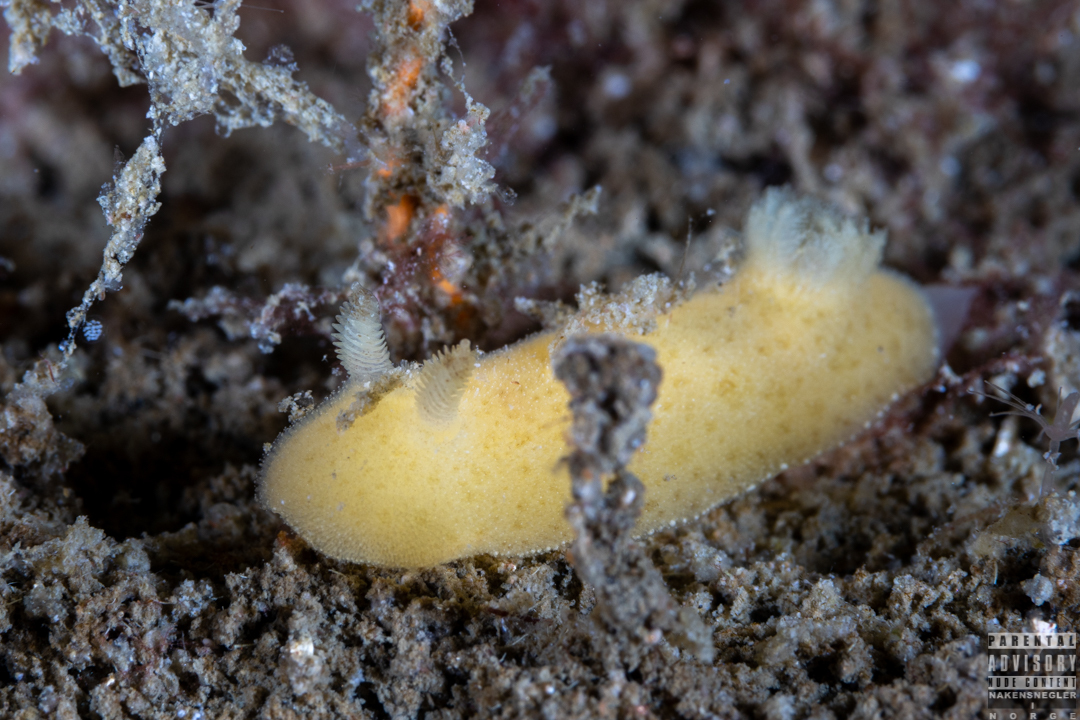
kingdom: Animalia
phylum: Mollusca
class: Gastropoda
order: Nudibranchia
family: Discodorididae
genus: Jorunna
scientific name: Jorunna tomentosa
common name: Grey sea slug
